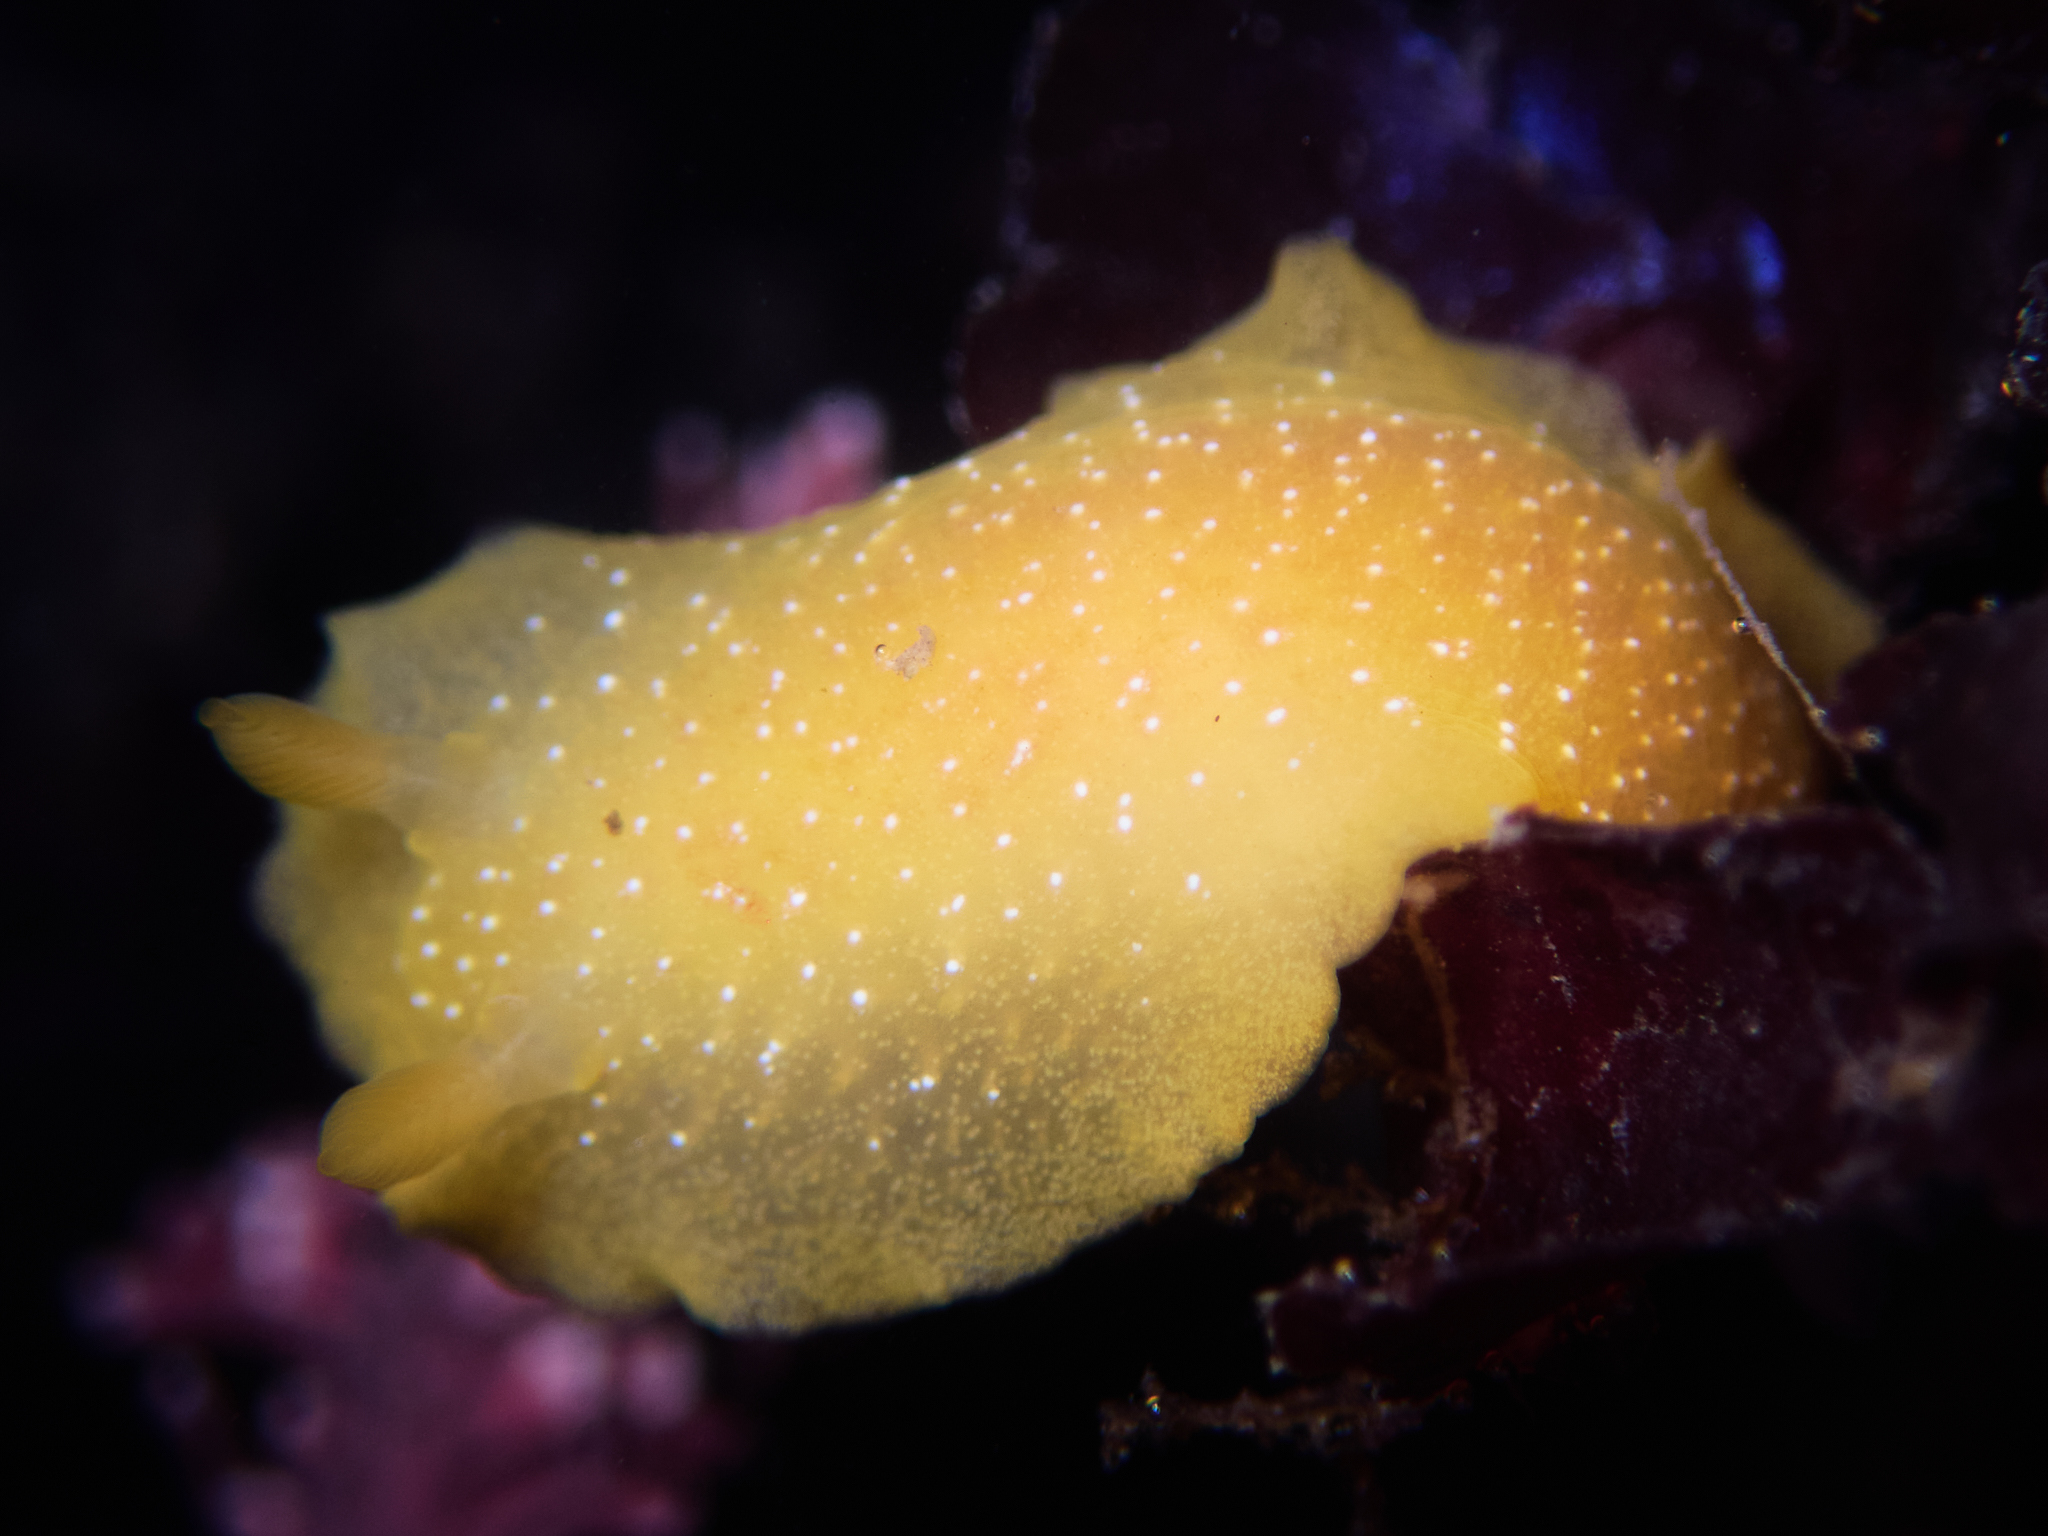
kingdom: Animalia
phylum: Mollusca
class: Gastropoda
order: Nudibranchia
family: Dendrodorididae
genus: Doriopsilla
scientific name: Doriopsilla fulva
